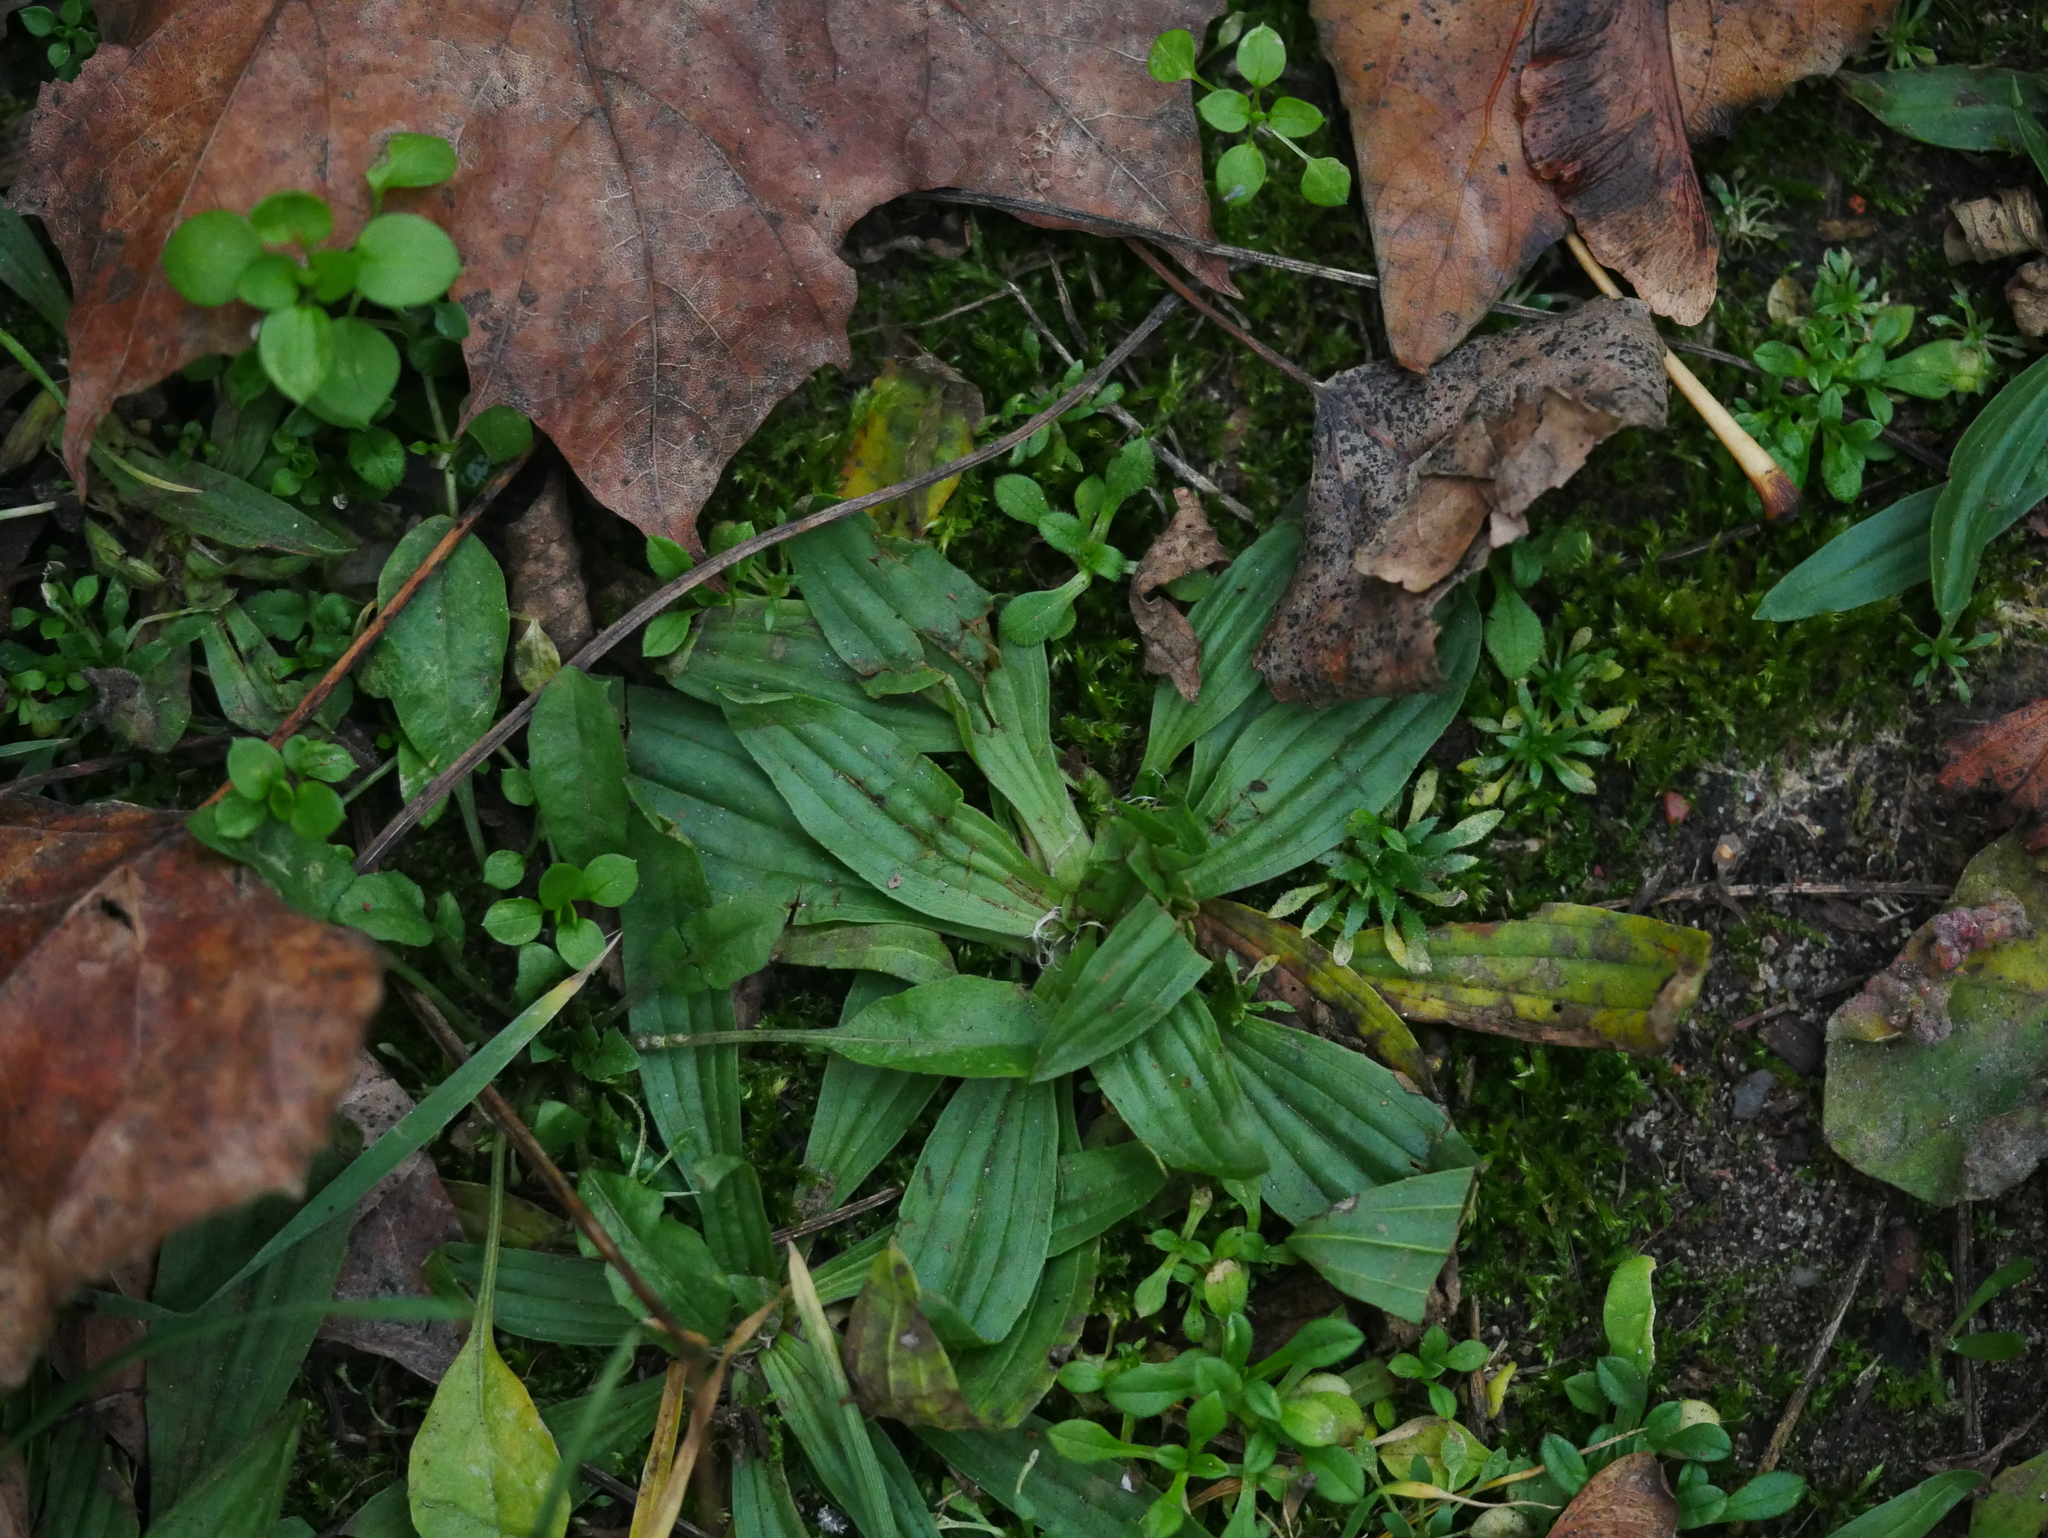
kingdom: Plantae
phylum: Tracheophyta
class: Magnoliopsida
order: Lamiales
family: Plantaginaceae
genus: Plantago
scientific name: Plantago lanceolata
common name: Ribwort plantain
